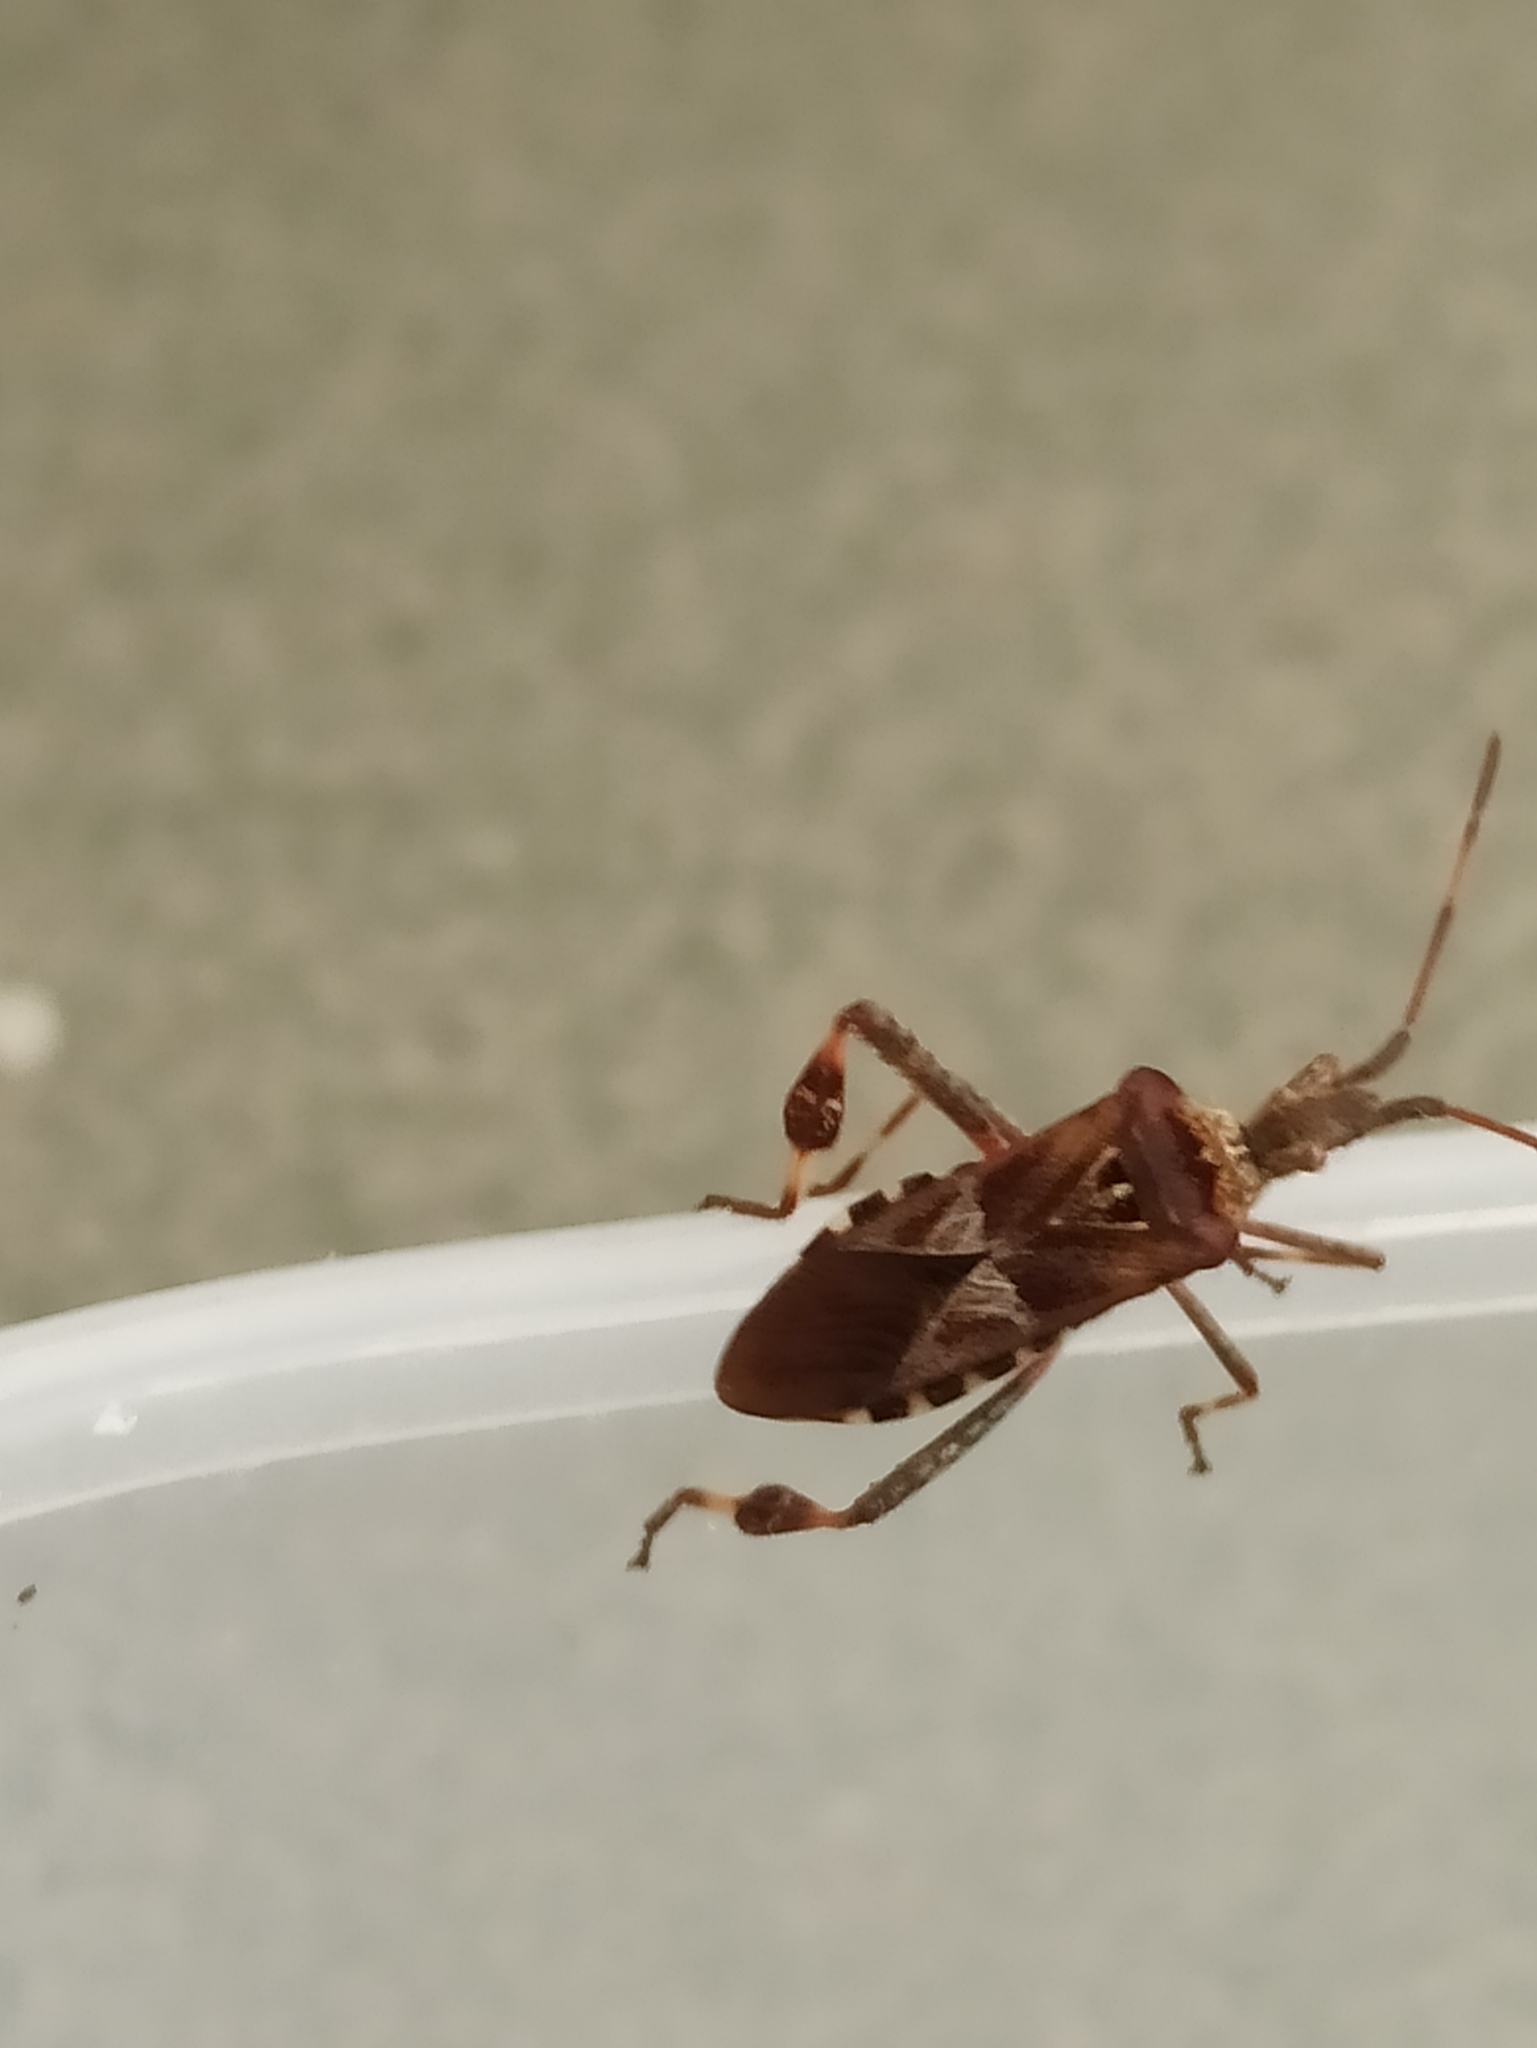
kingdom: Animalia
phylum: Arthropoda
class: Insecta
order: Hemiptera
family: Coreidae
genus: Leptoglossus
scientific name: Leptoglossus occidentalis
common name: Western conifer-seed bug
